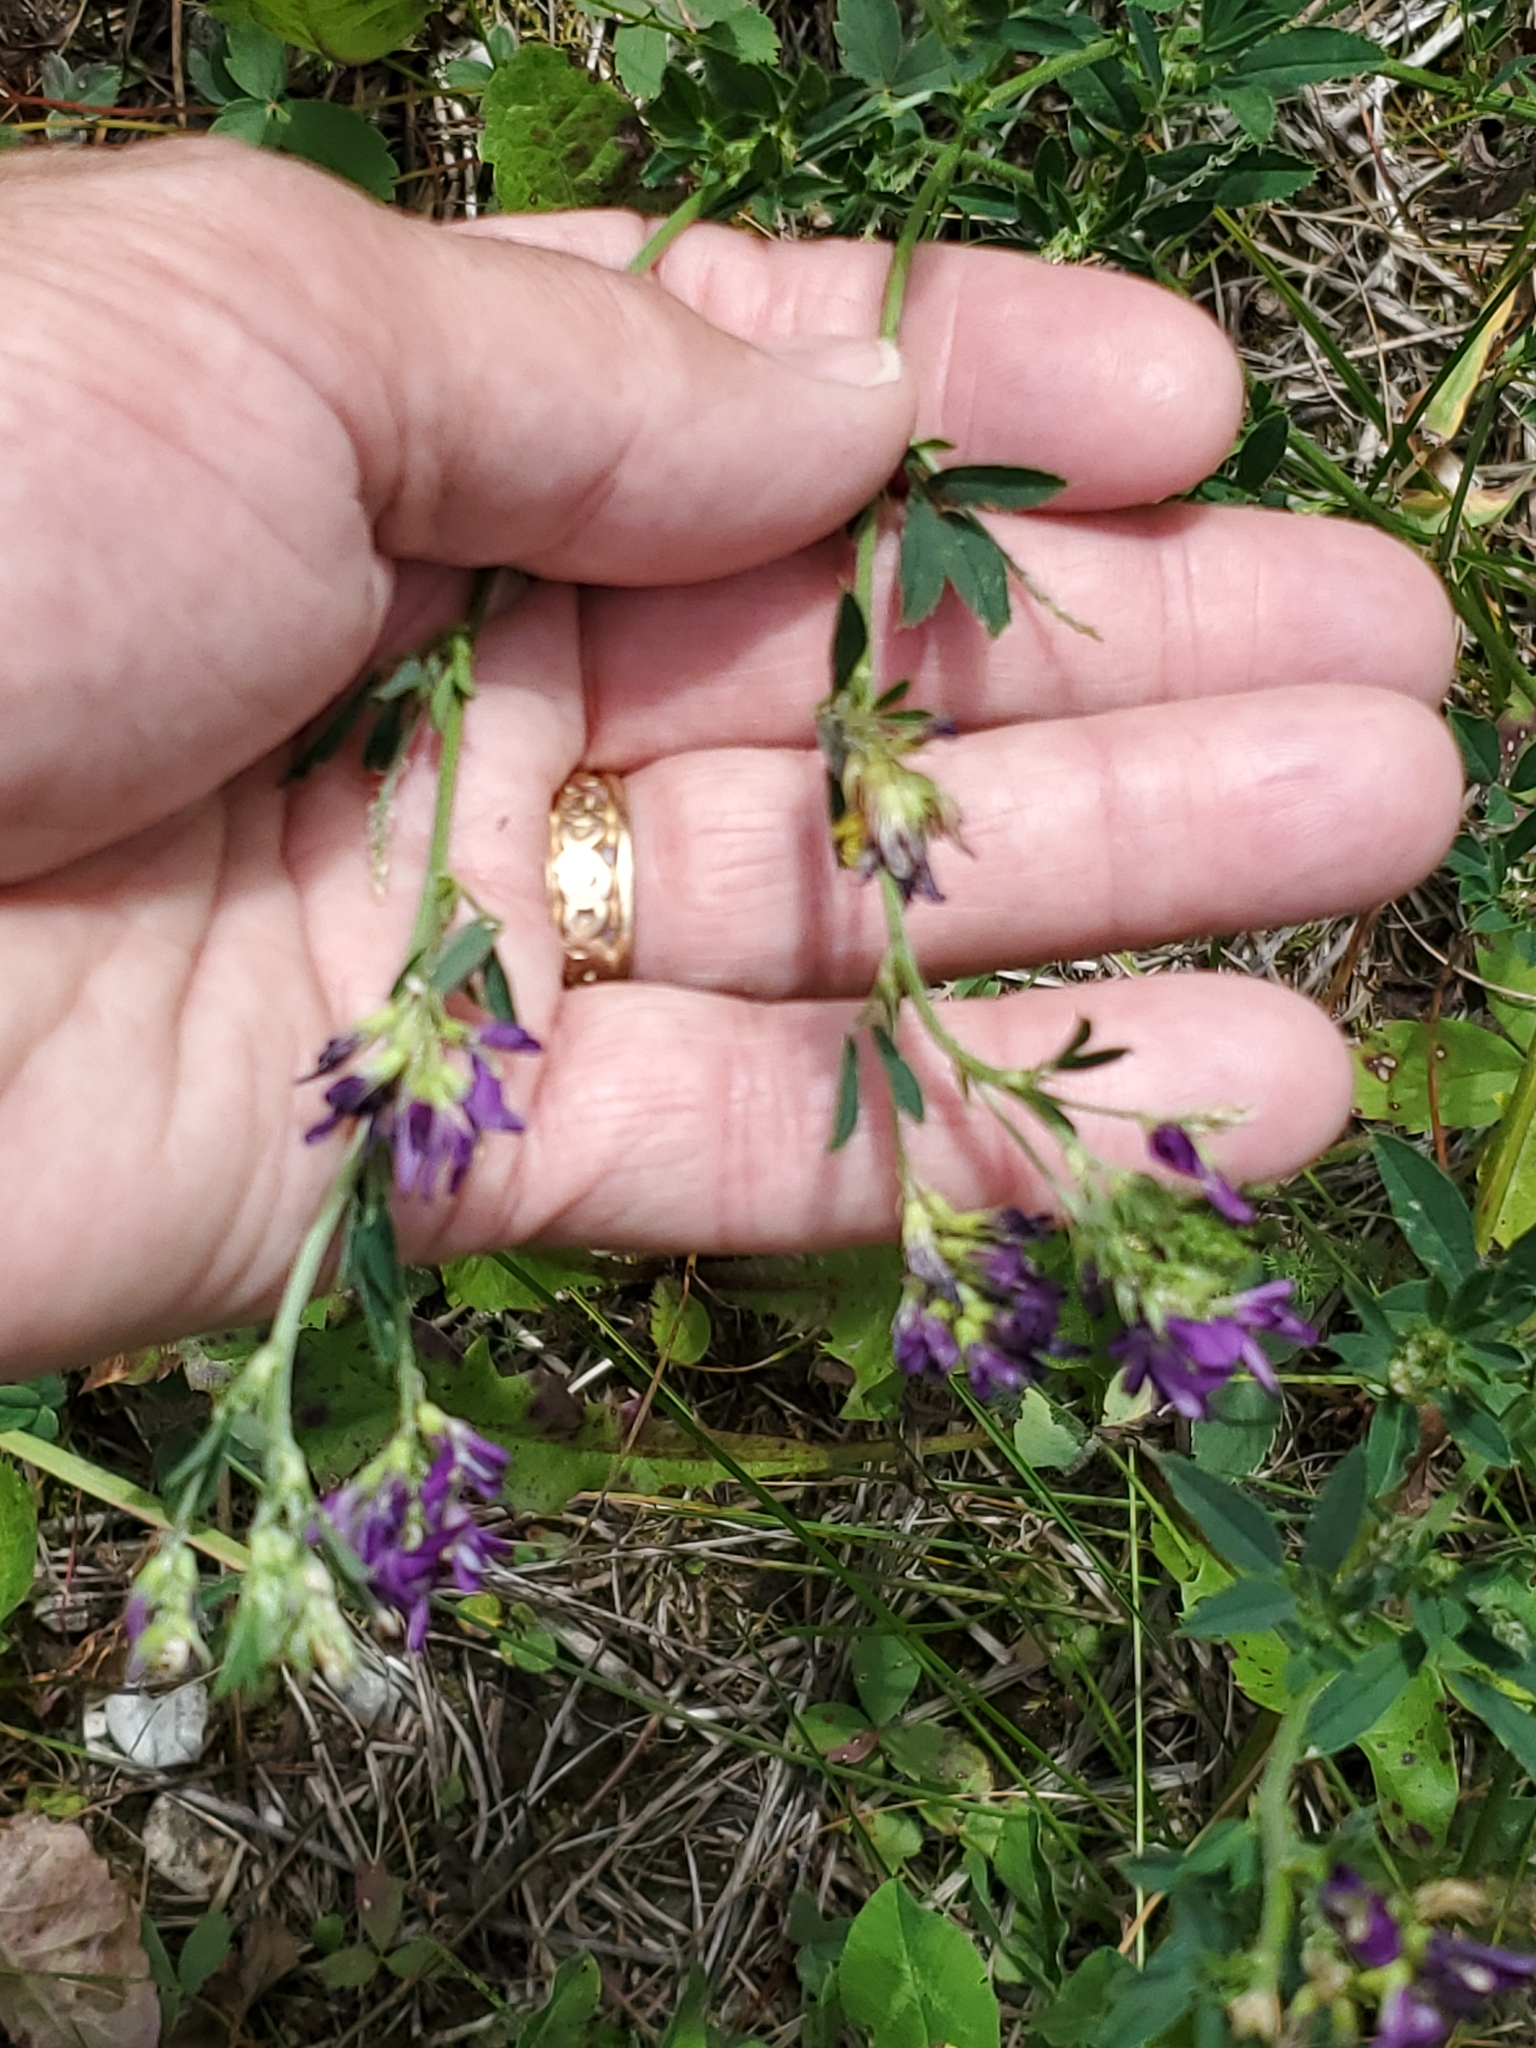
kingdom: Plantae
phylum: Tracheophyta
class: Magnoliopsida
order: Fabales
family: Fabaceae
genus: Medicago
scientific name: Medicago sativa
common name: Alfalfa
